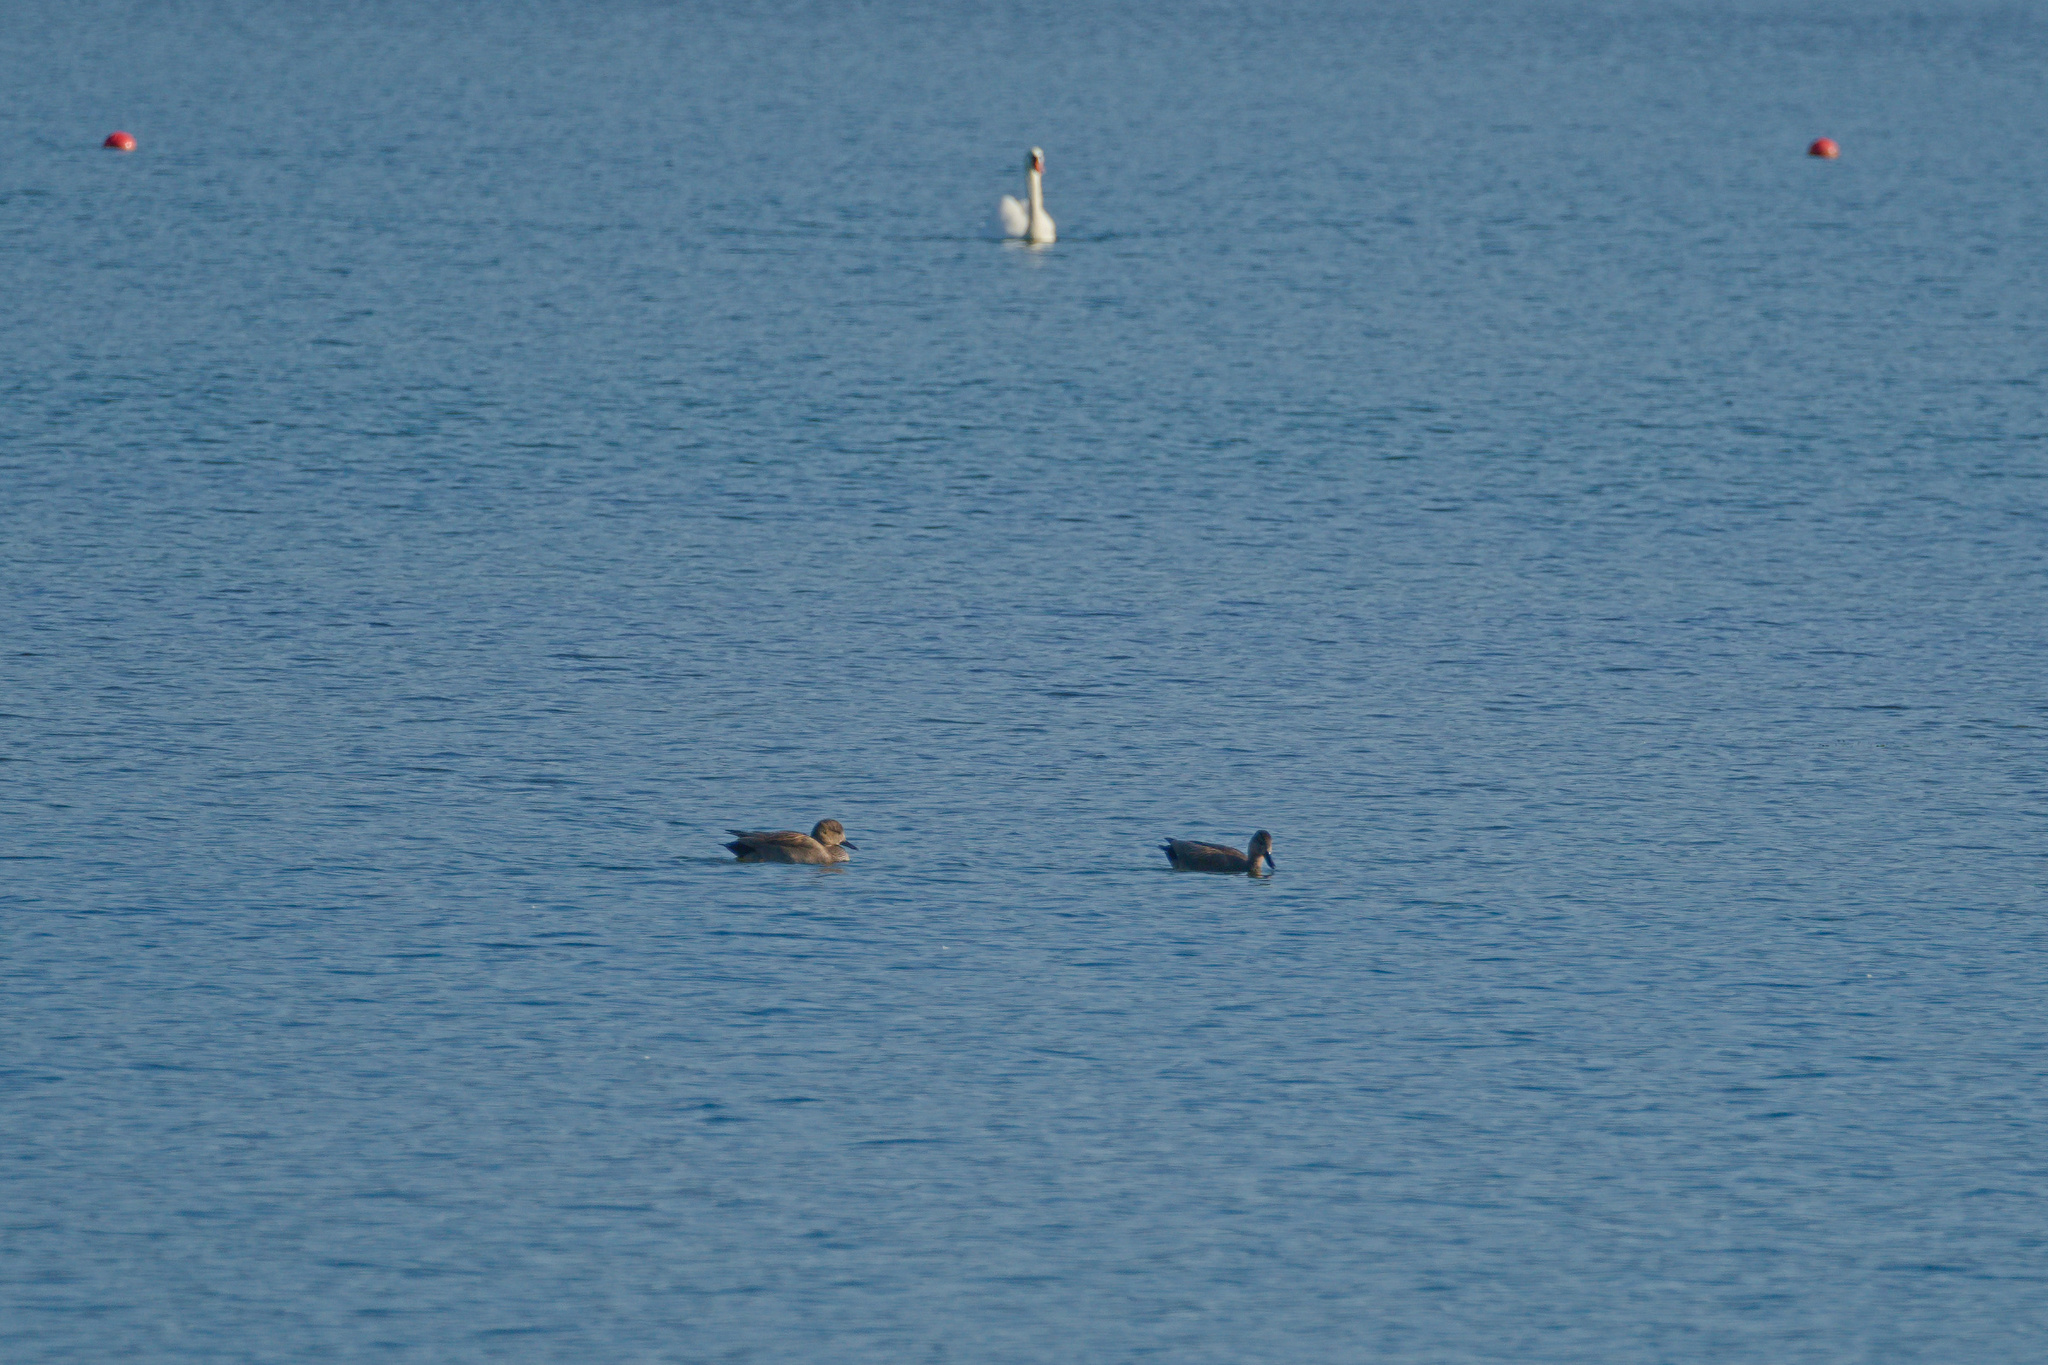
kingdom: Animalia
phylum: Chordata
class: Aves
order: Anseriformes
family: Anatidae
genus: Mareca
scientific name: Mareca strepera
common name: Gadwall
